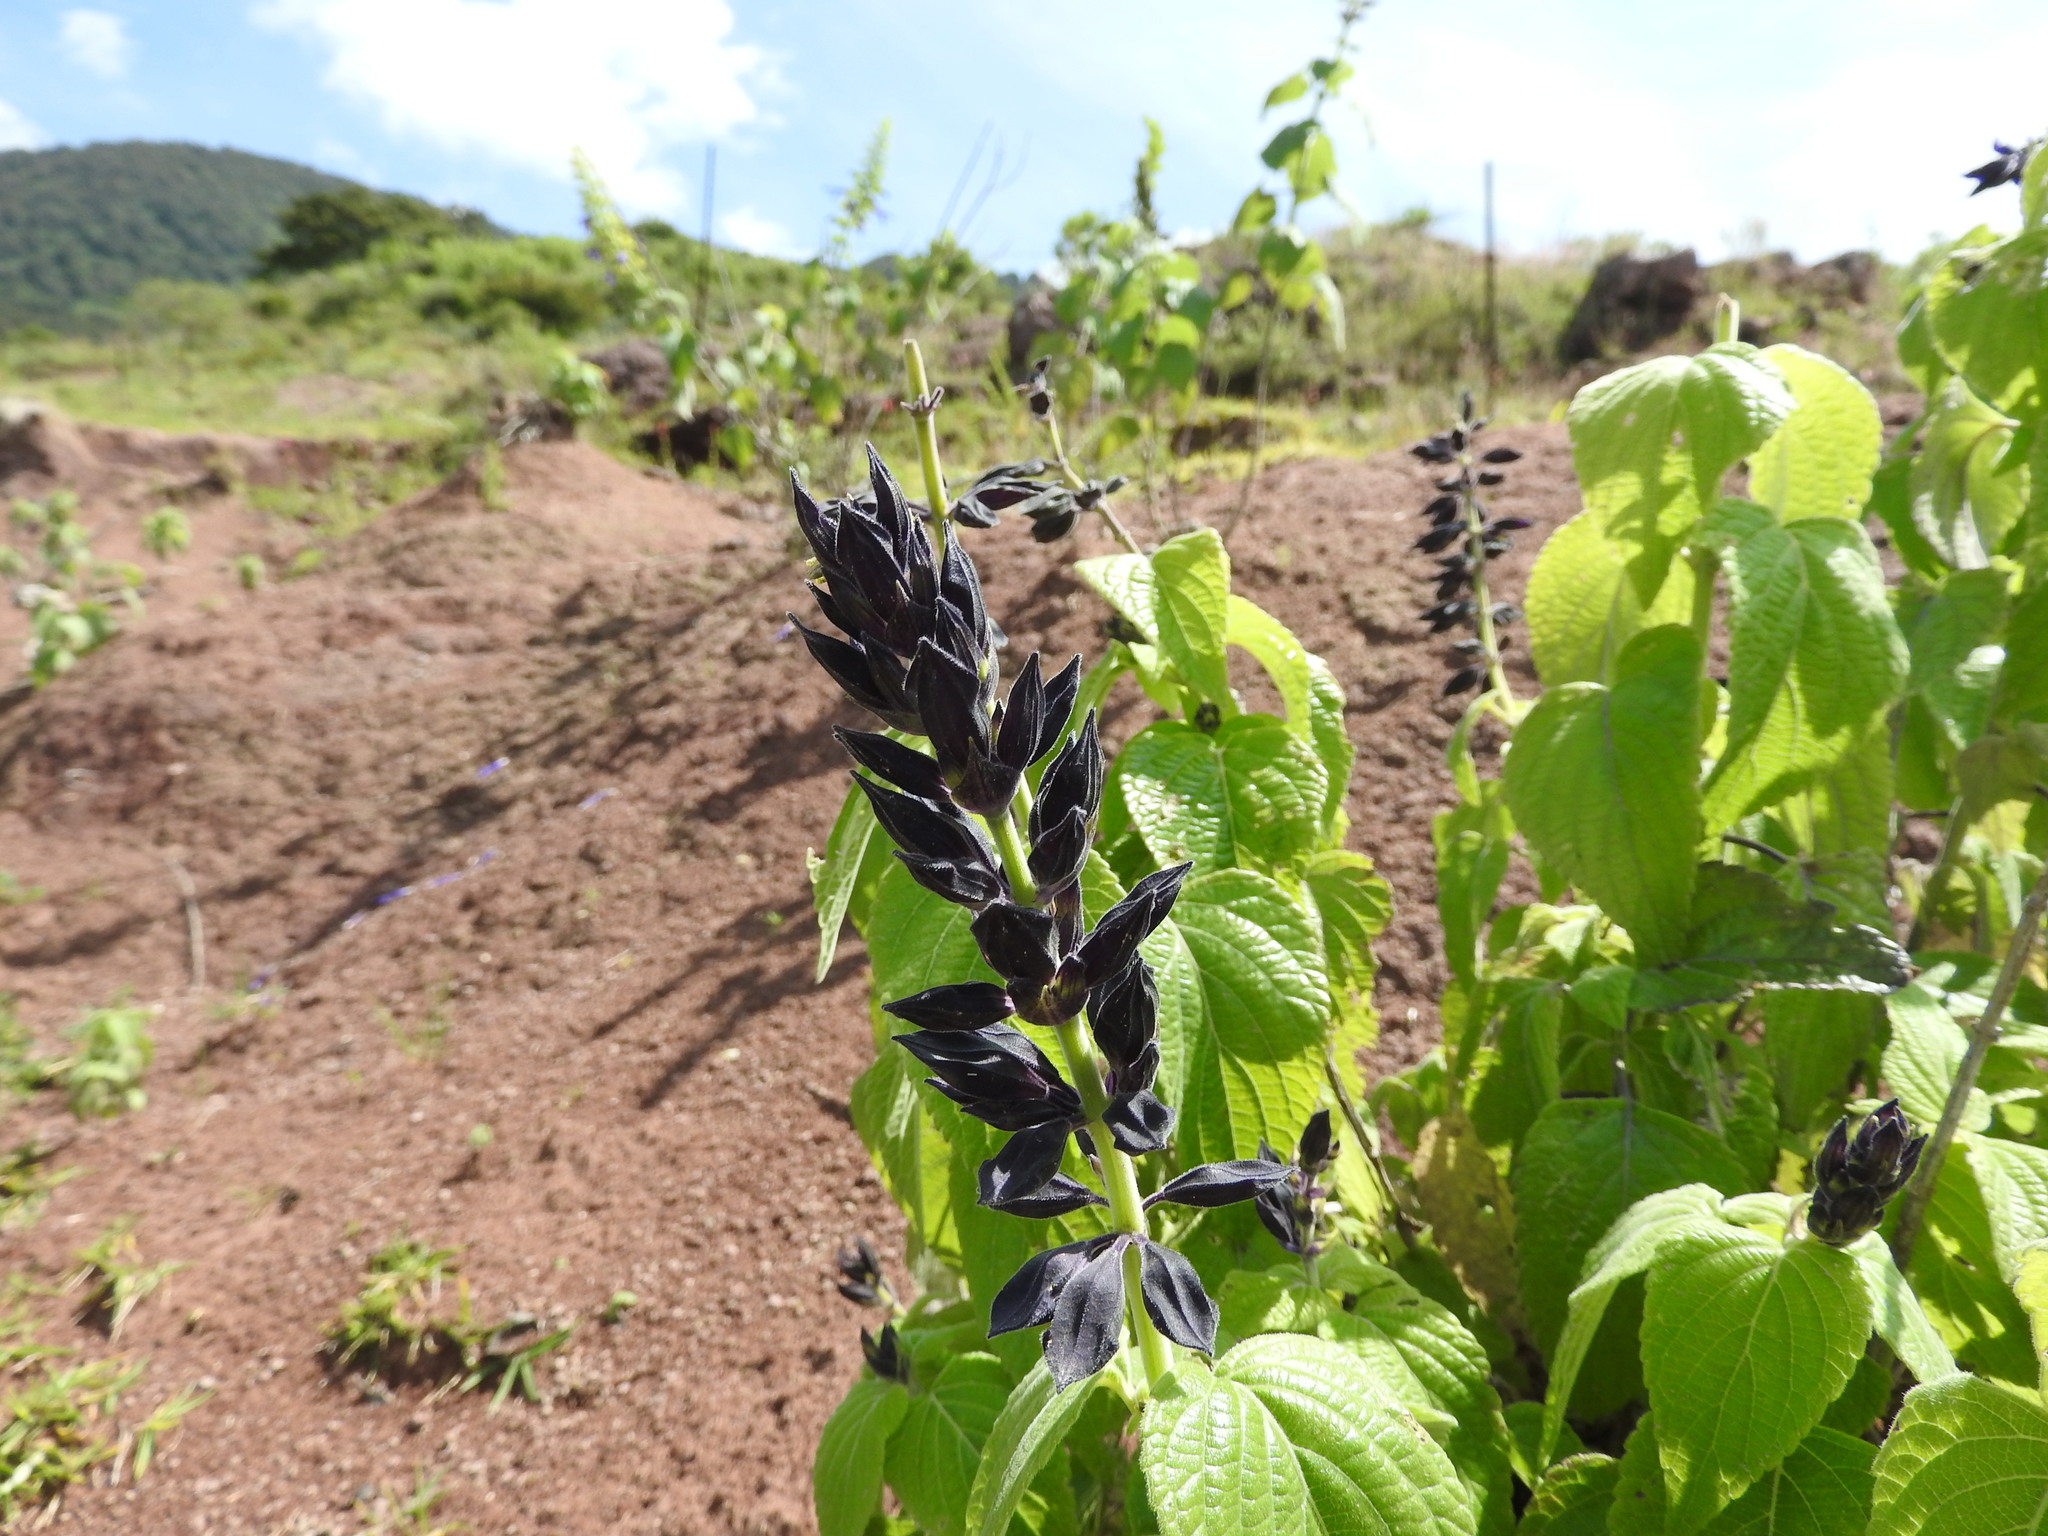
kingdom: Plantae
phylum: Tracheophyta
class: Magnoliopsida
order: Lamiales
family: Lamiaceae
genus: Salvia
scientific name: Salvia mexicana
